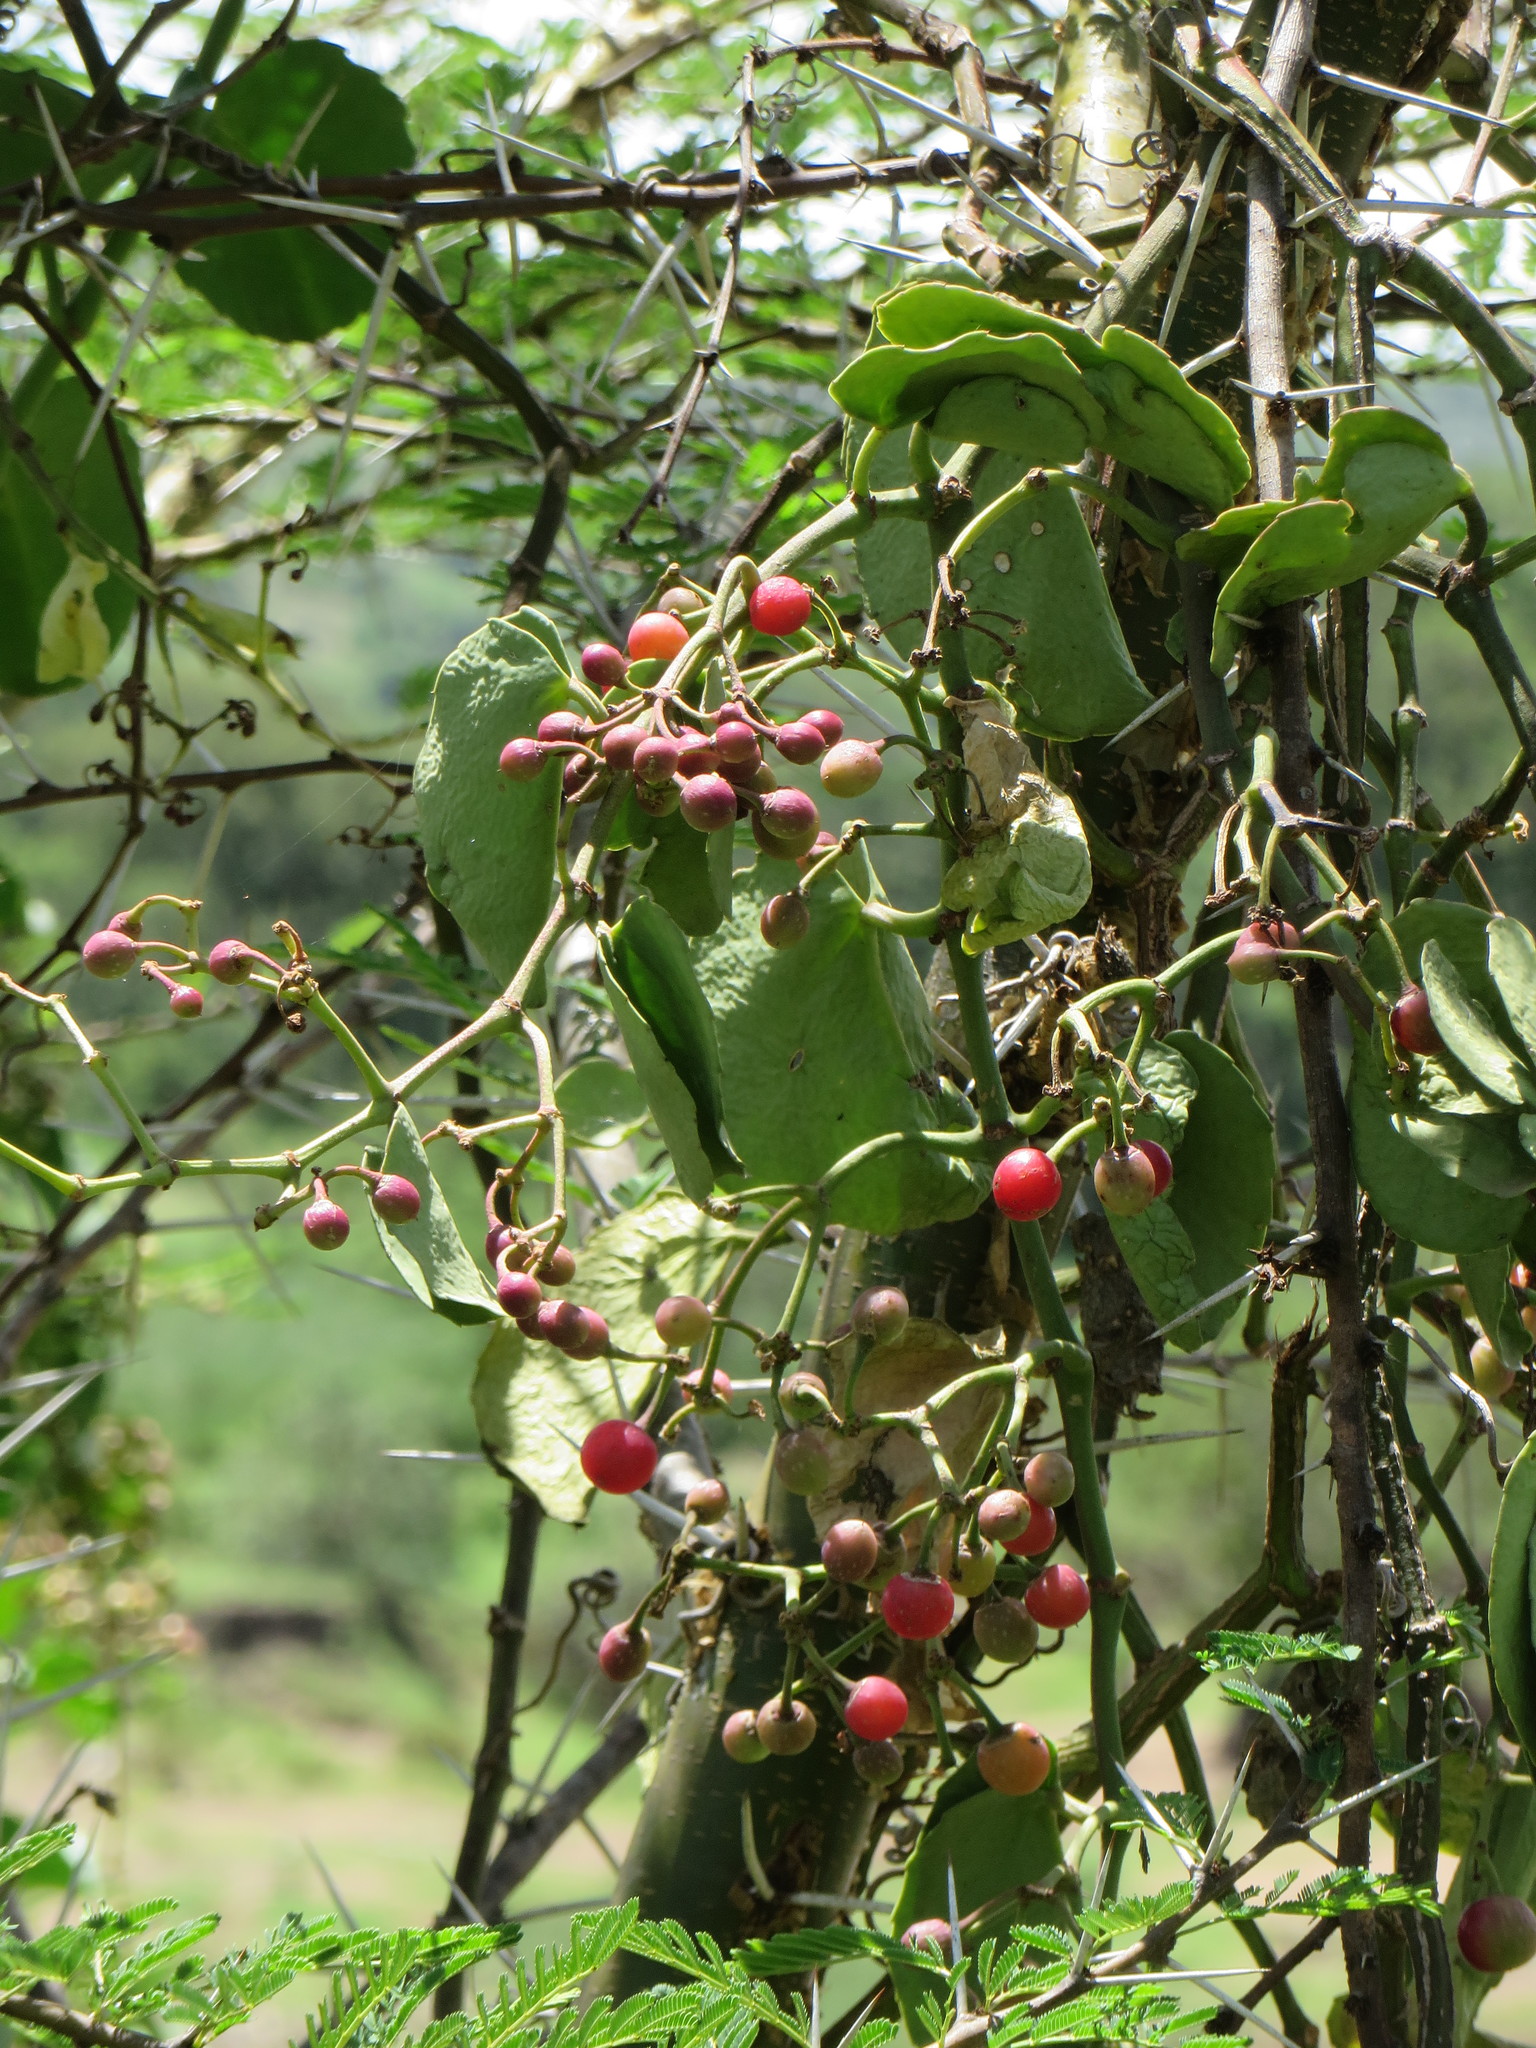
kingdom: Plantae
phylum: Tracheophyta
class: Magnoliopsida
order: Vitales
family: Vitaceae
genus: Cissus
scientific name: Cissus rotundifolia
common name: Arabian wax cissus
